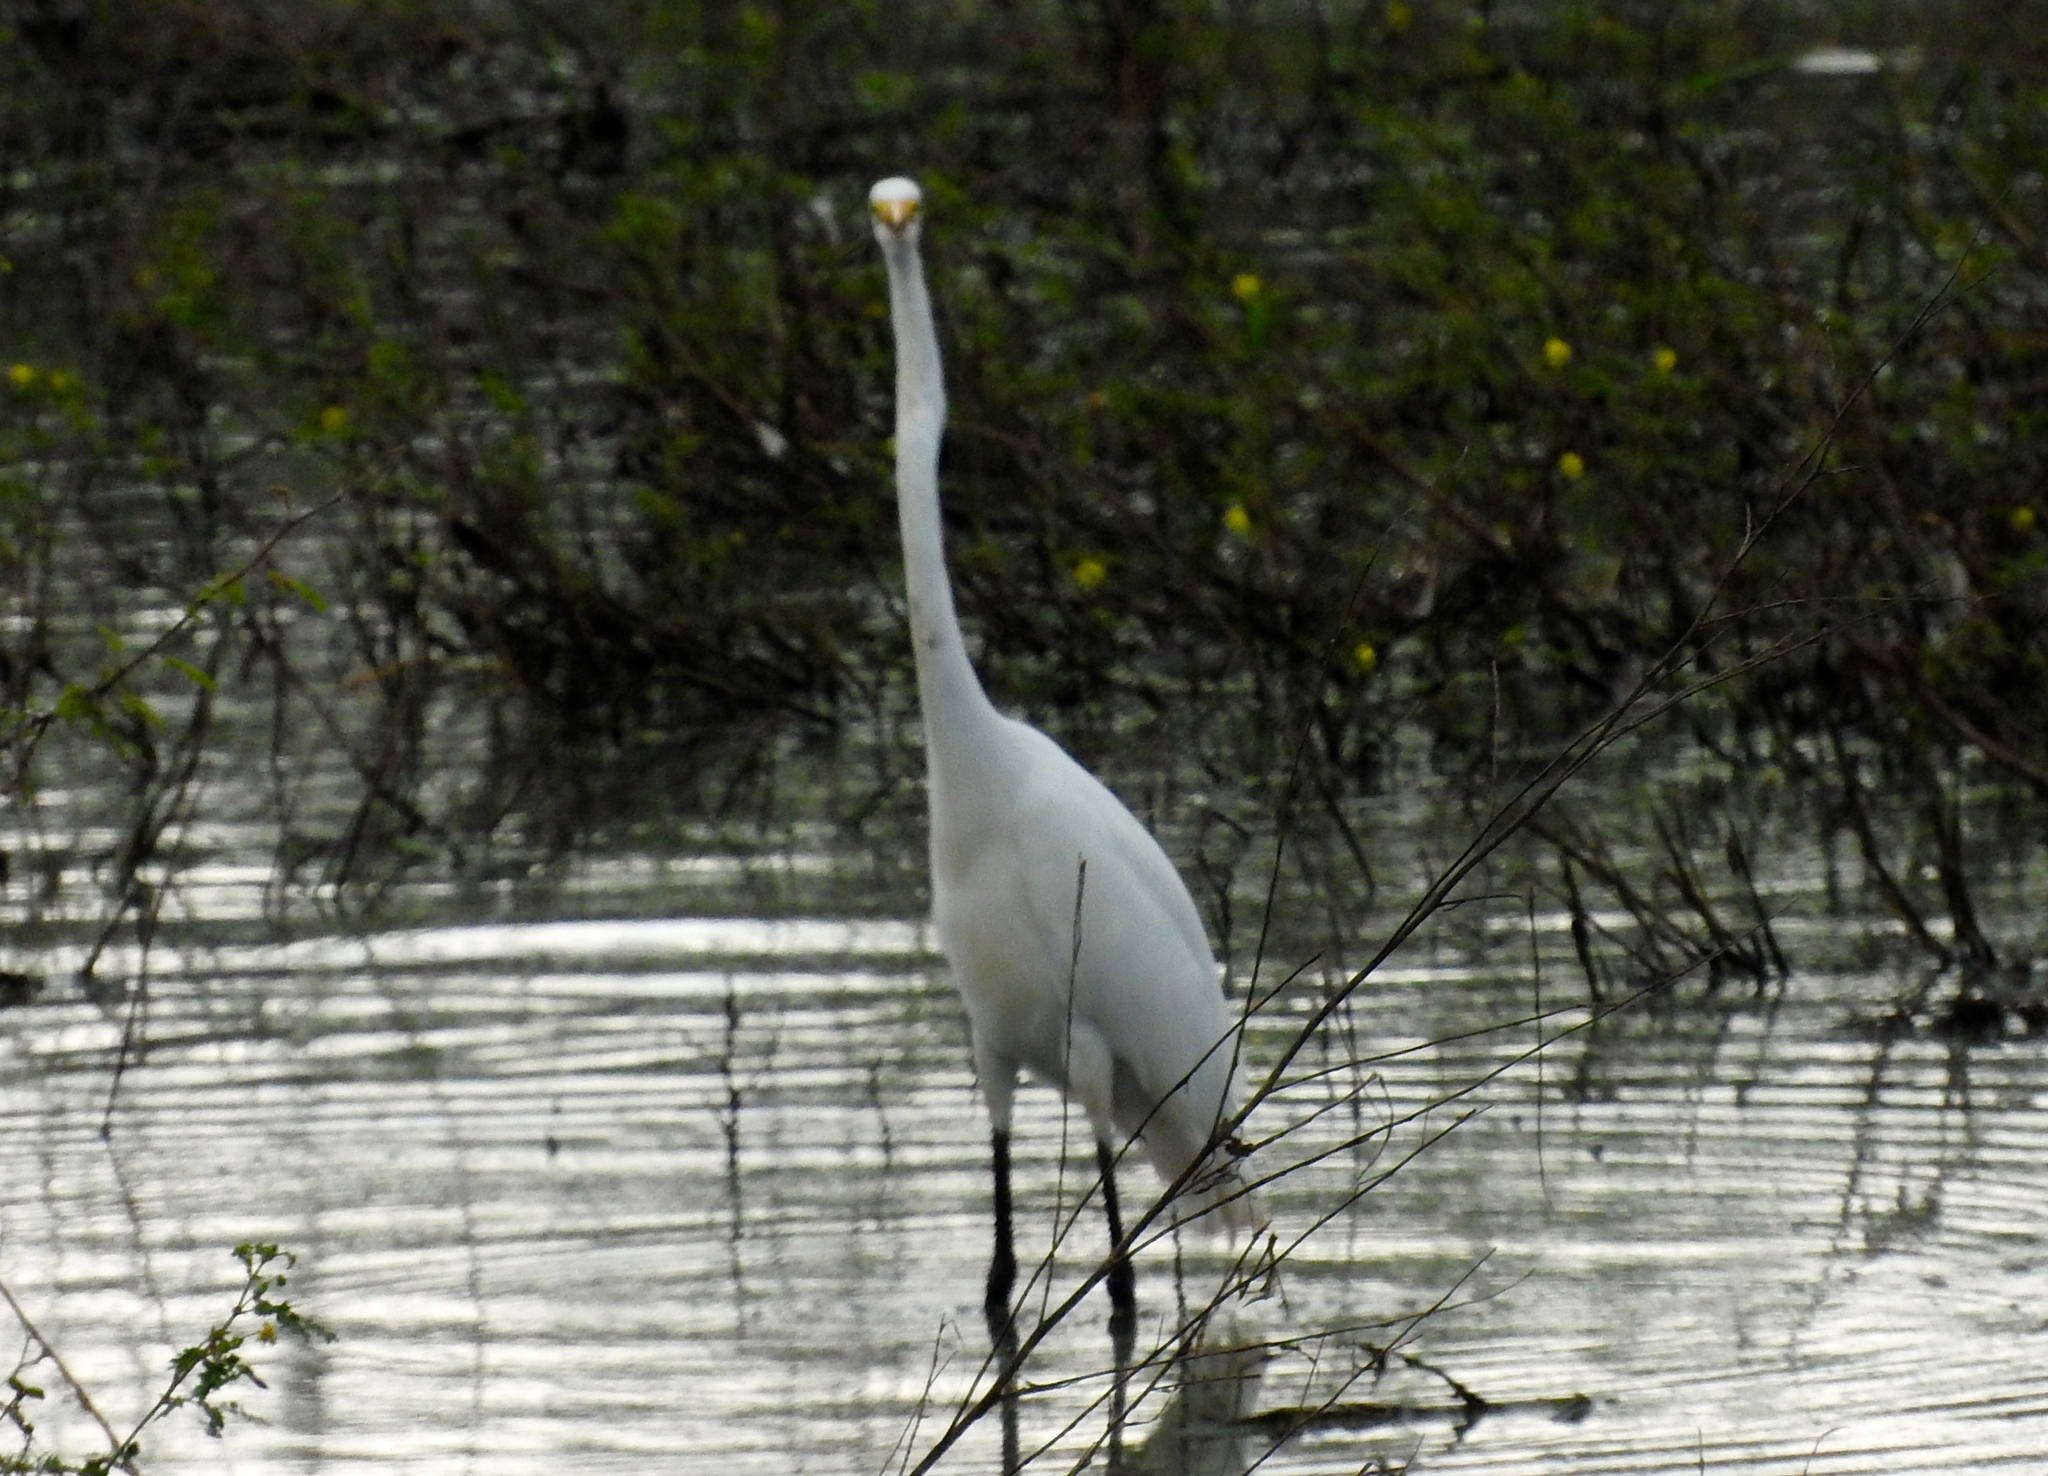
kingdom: Animalia
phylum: Chordata
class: Aves
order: Pelecaniformes
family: Ardeidae
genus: Ardea
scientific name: Ardea alba
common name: Great egret
